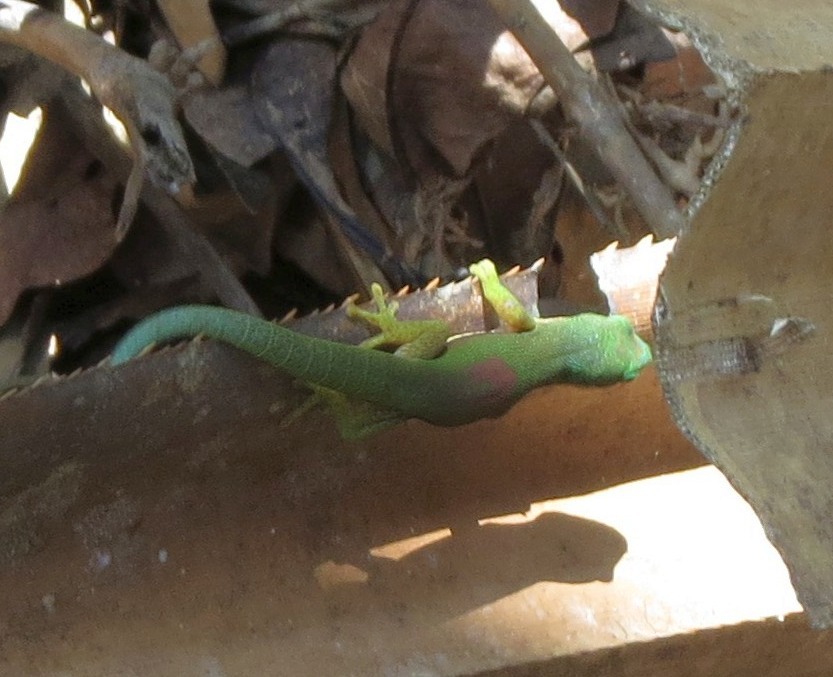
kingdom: Animalia
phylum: Chordata
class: Squamata
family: Gekkonidae
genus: Phelsuma
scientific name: Phelsuma lineata
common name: Lined day gecko
